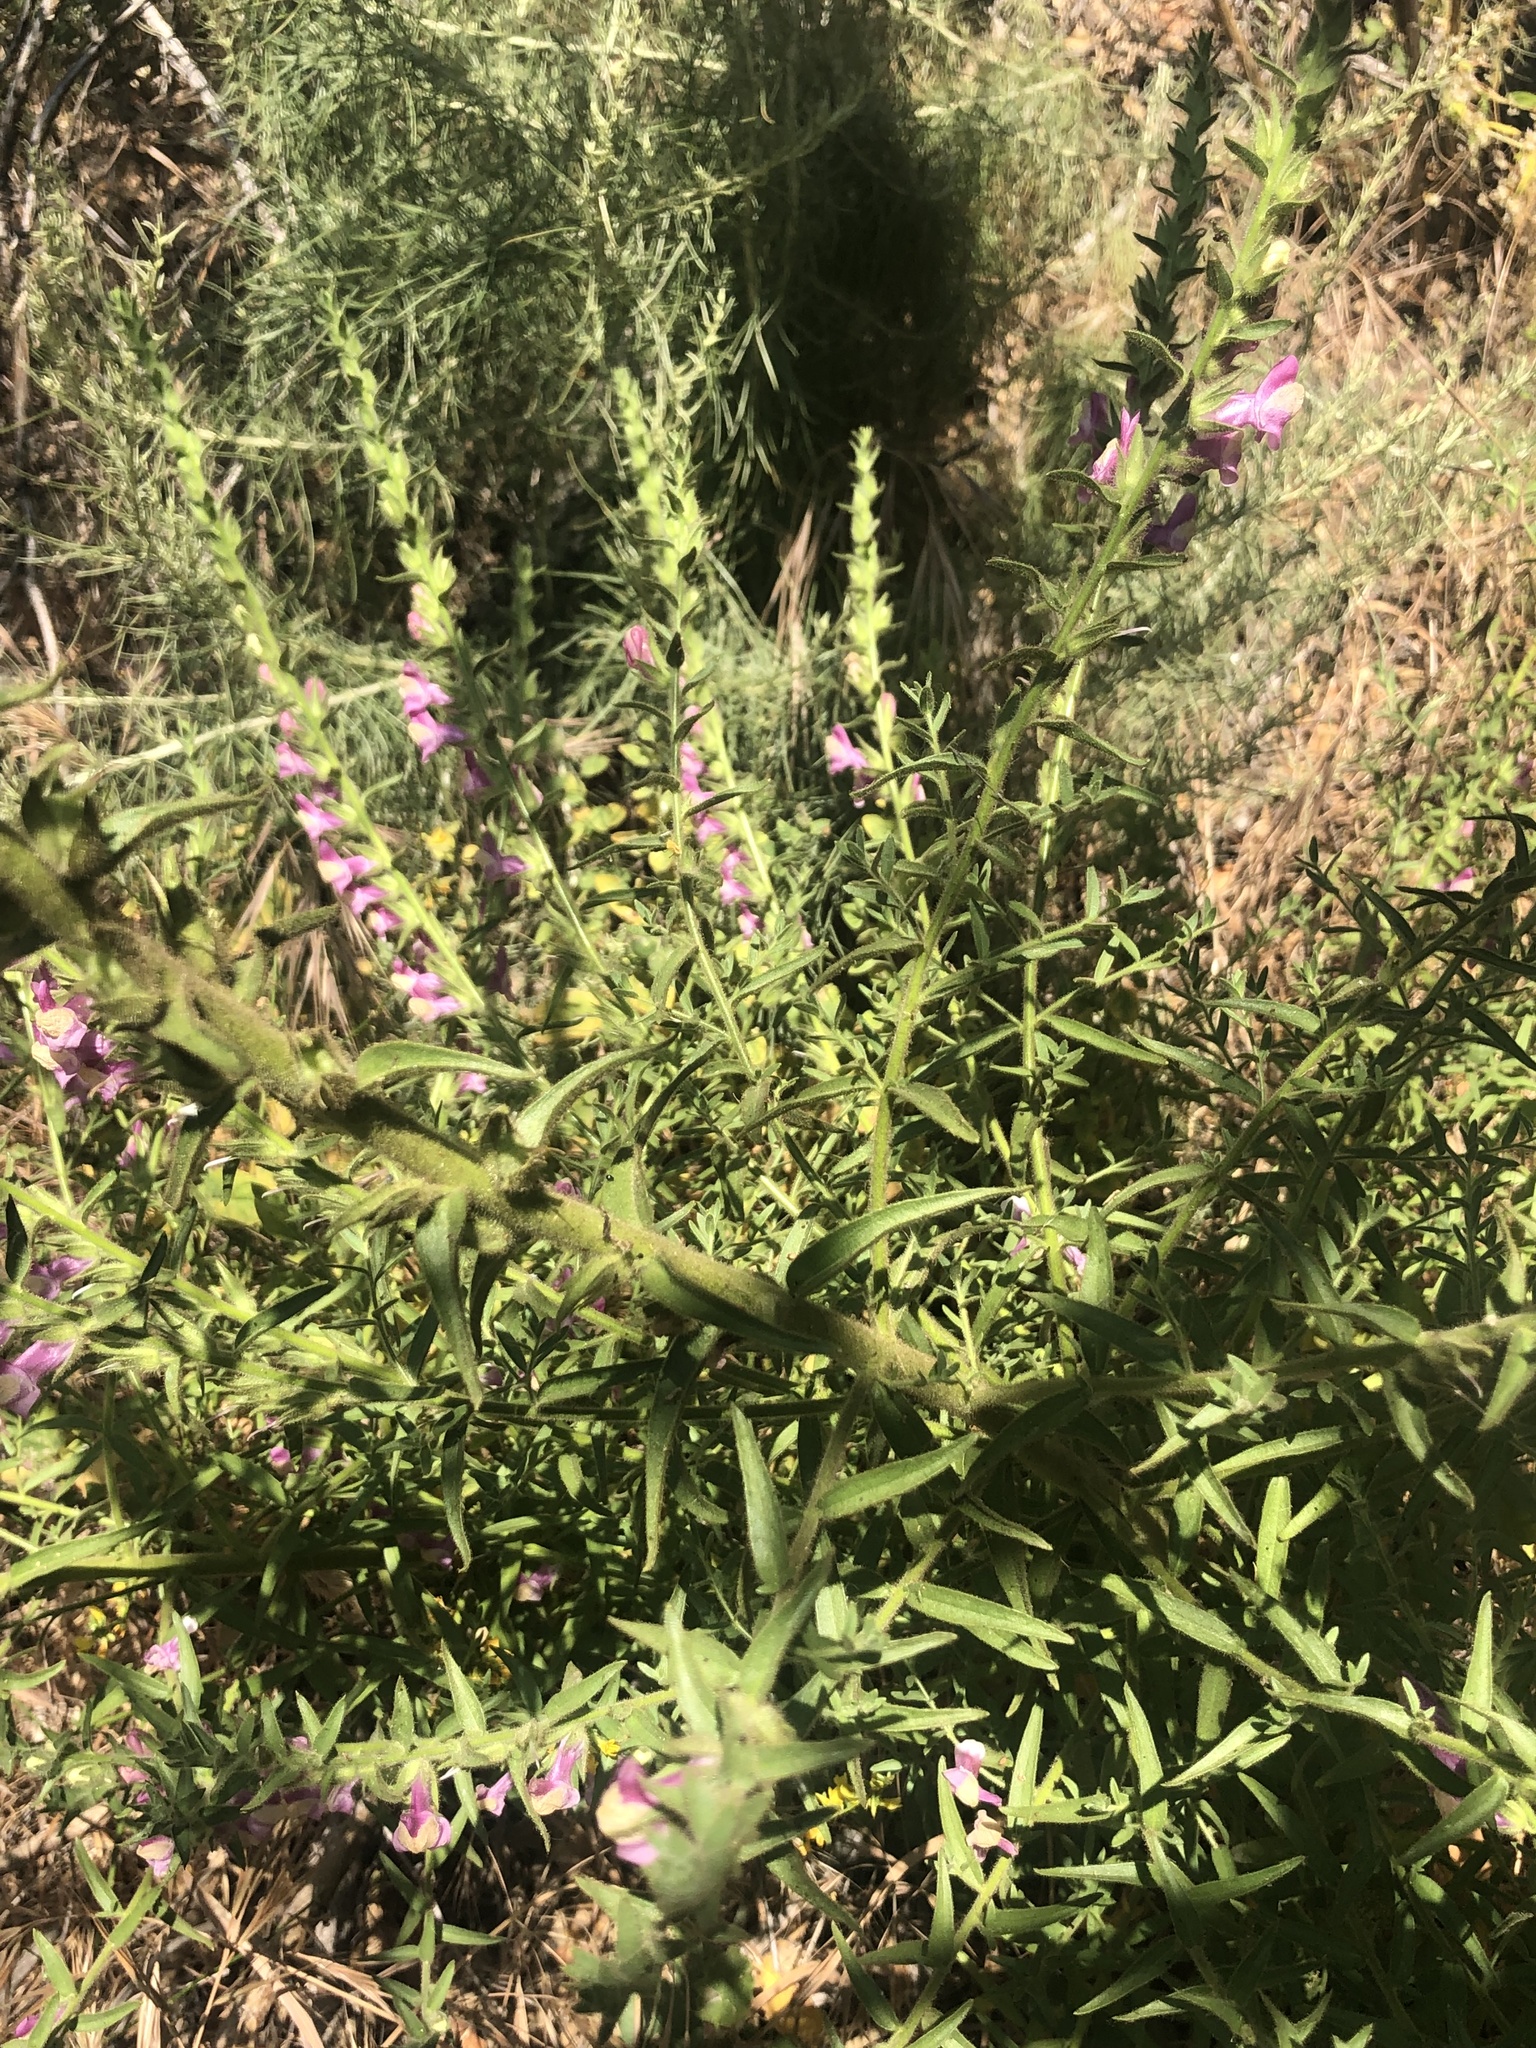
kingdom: Plantae
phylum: Tracheophyta
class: Magnoliopsida
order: Lamiales
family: Plantaginaceae
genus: Sairocarpus
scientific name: Sairocarpus multiflorus
